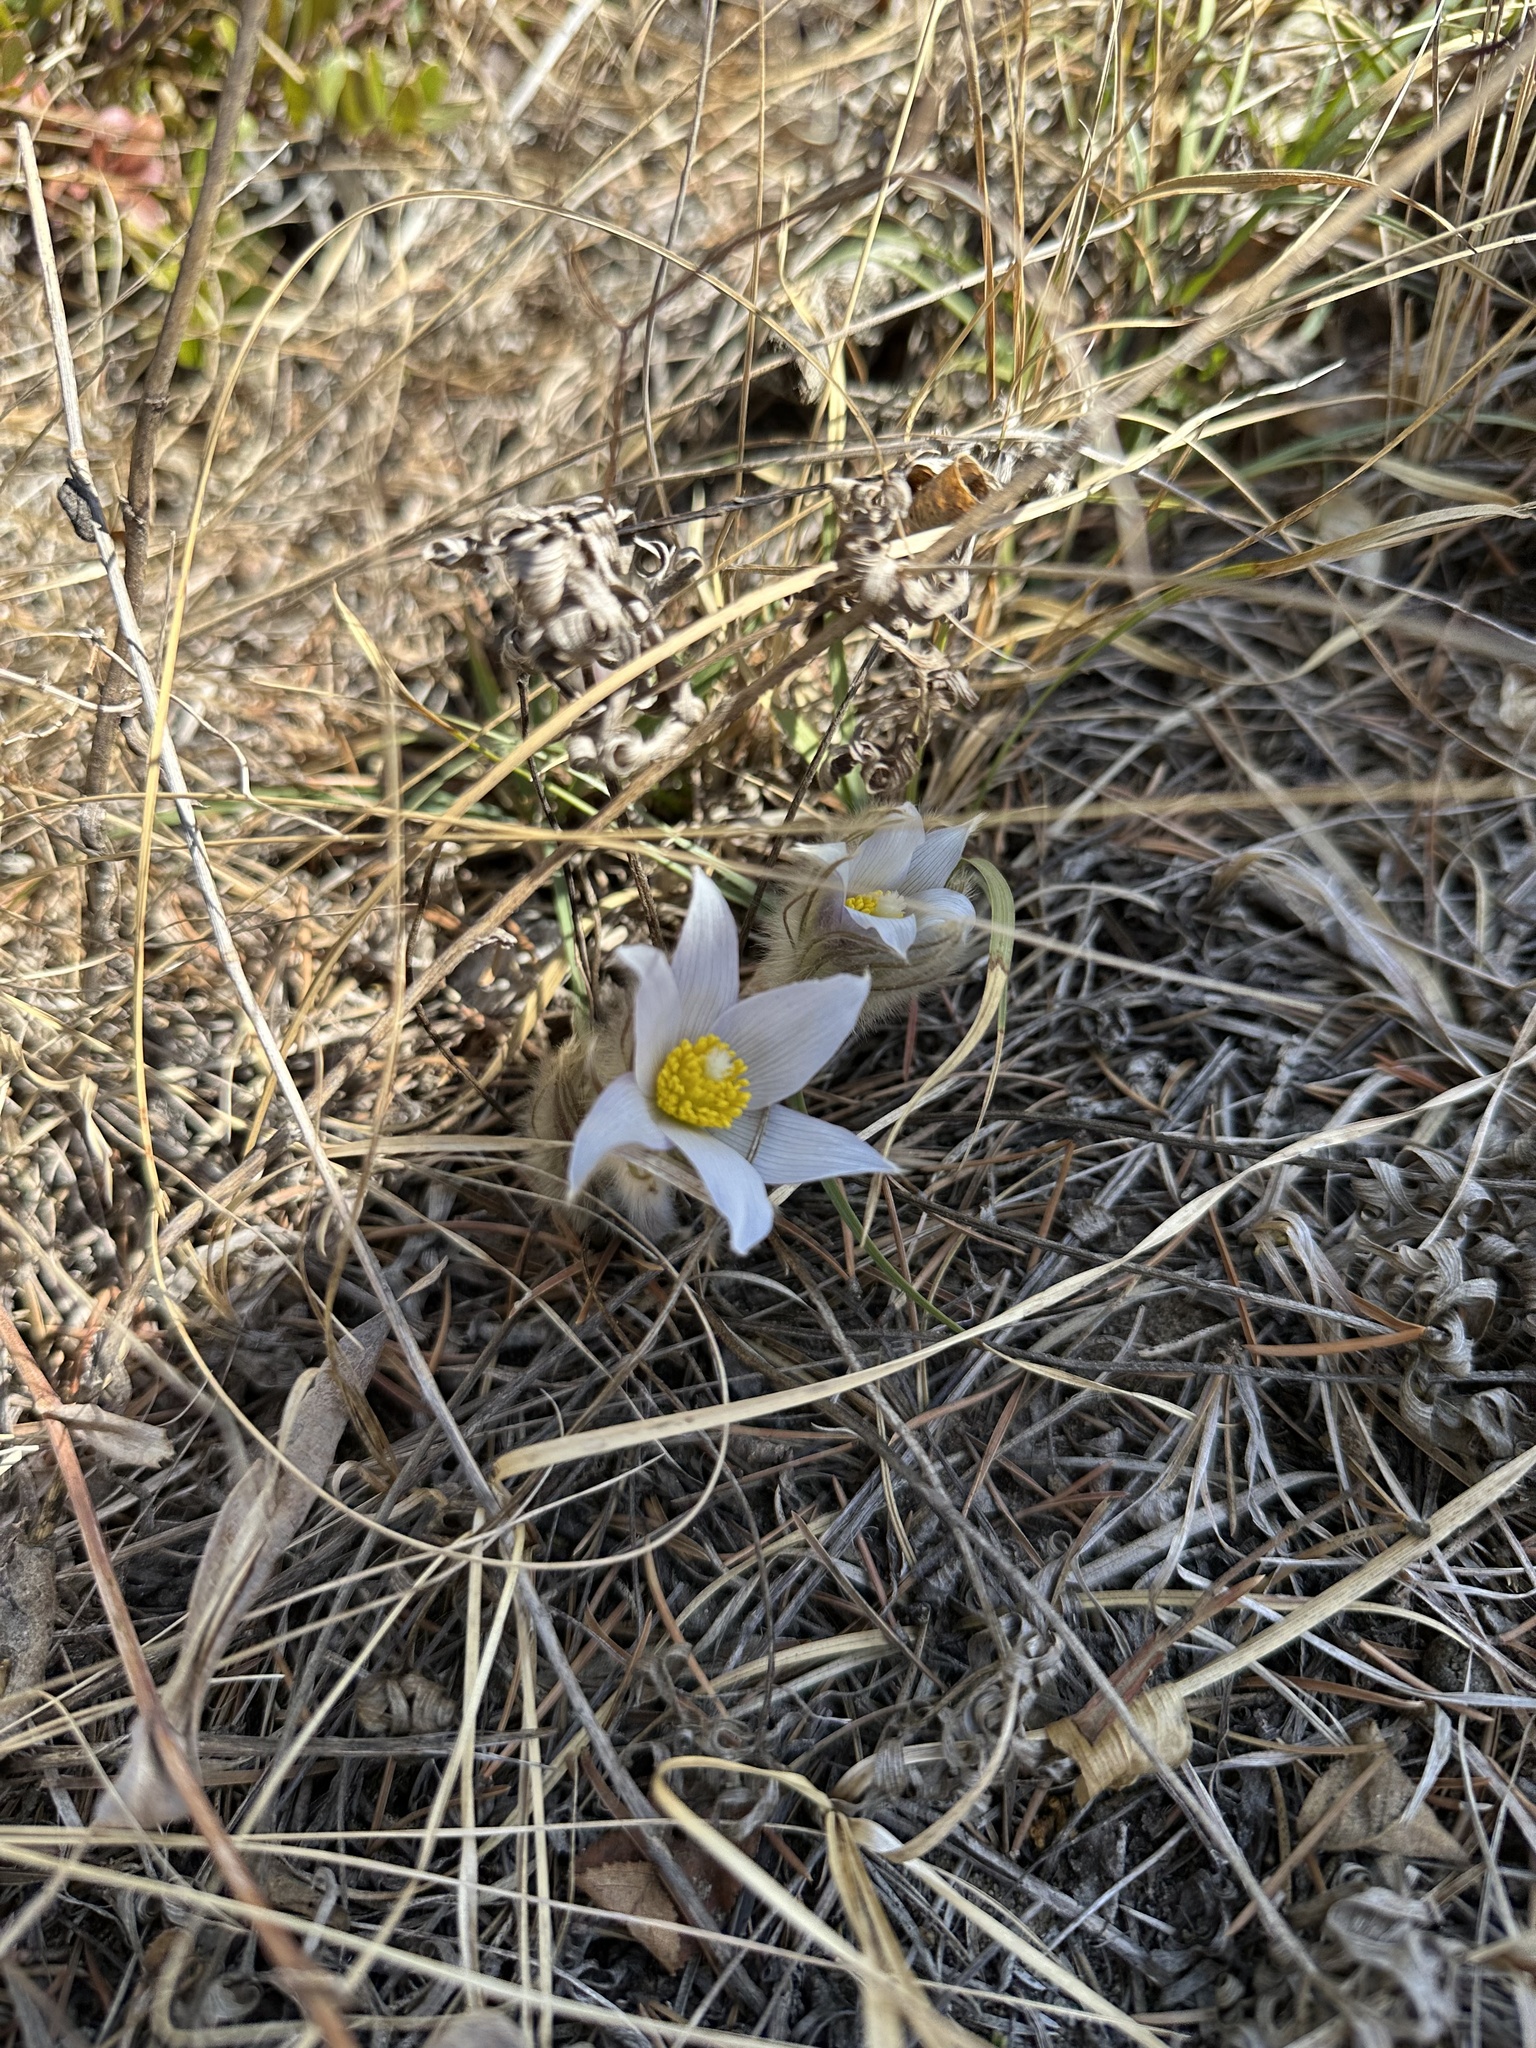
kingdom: Plantae
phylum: Tracheophyta
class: Magnoliopsida
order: Ranunculales
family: Ranunculaceae
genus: Pulsatilla
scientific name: Pulsatilla nuttalliana
